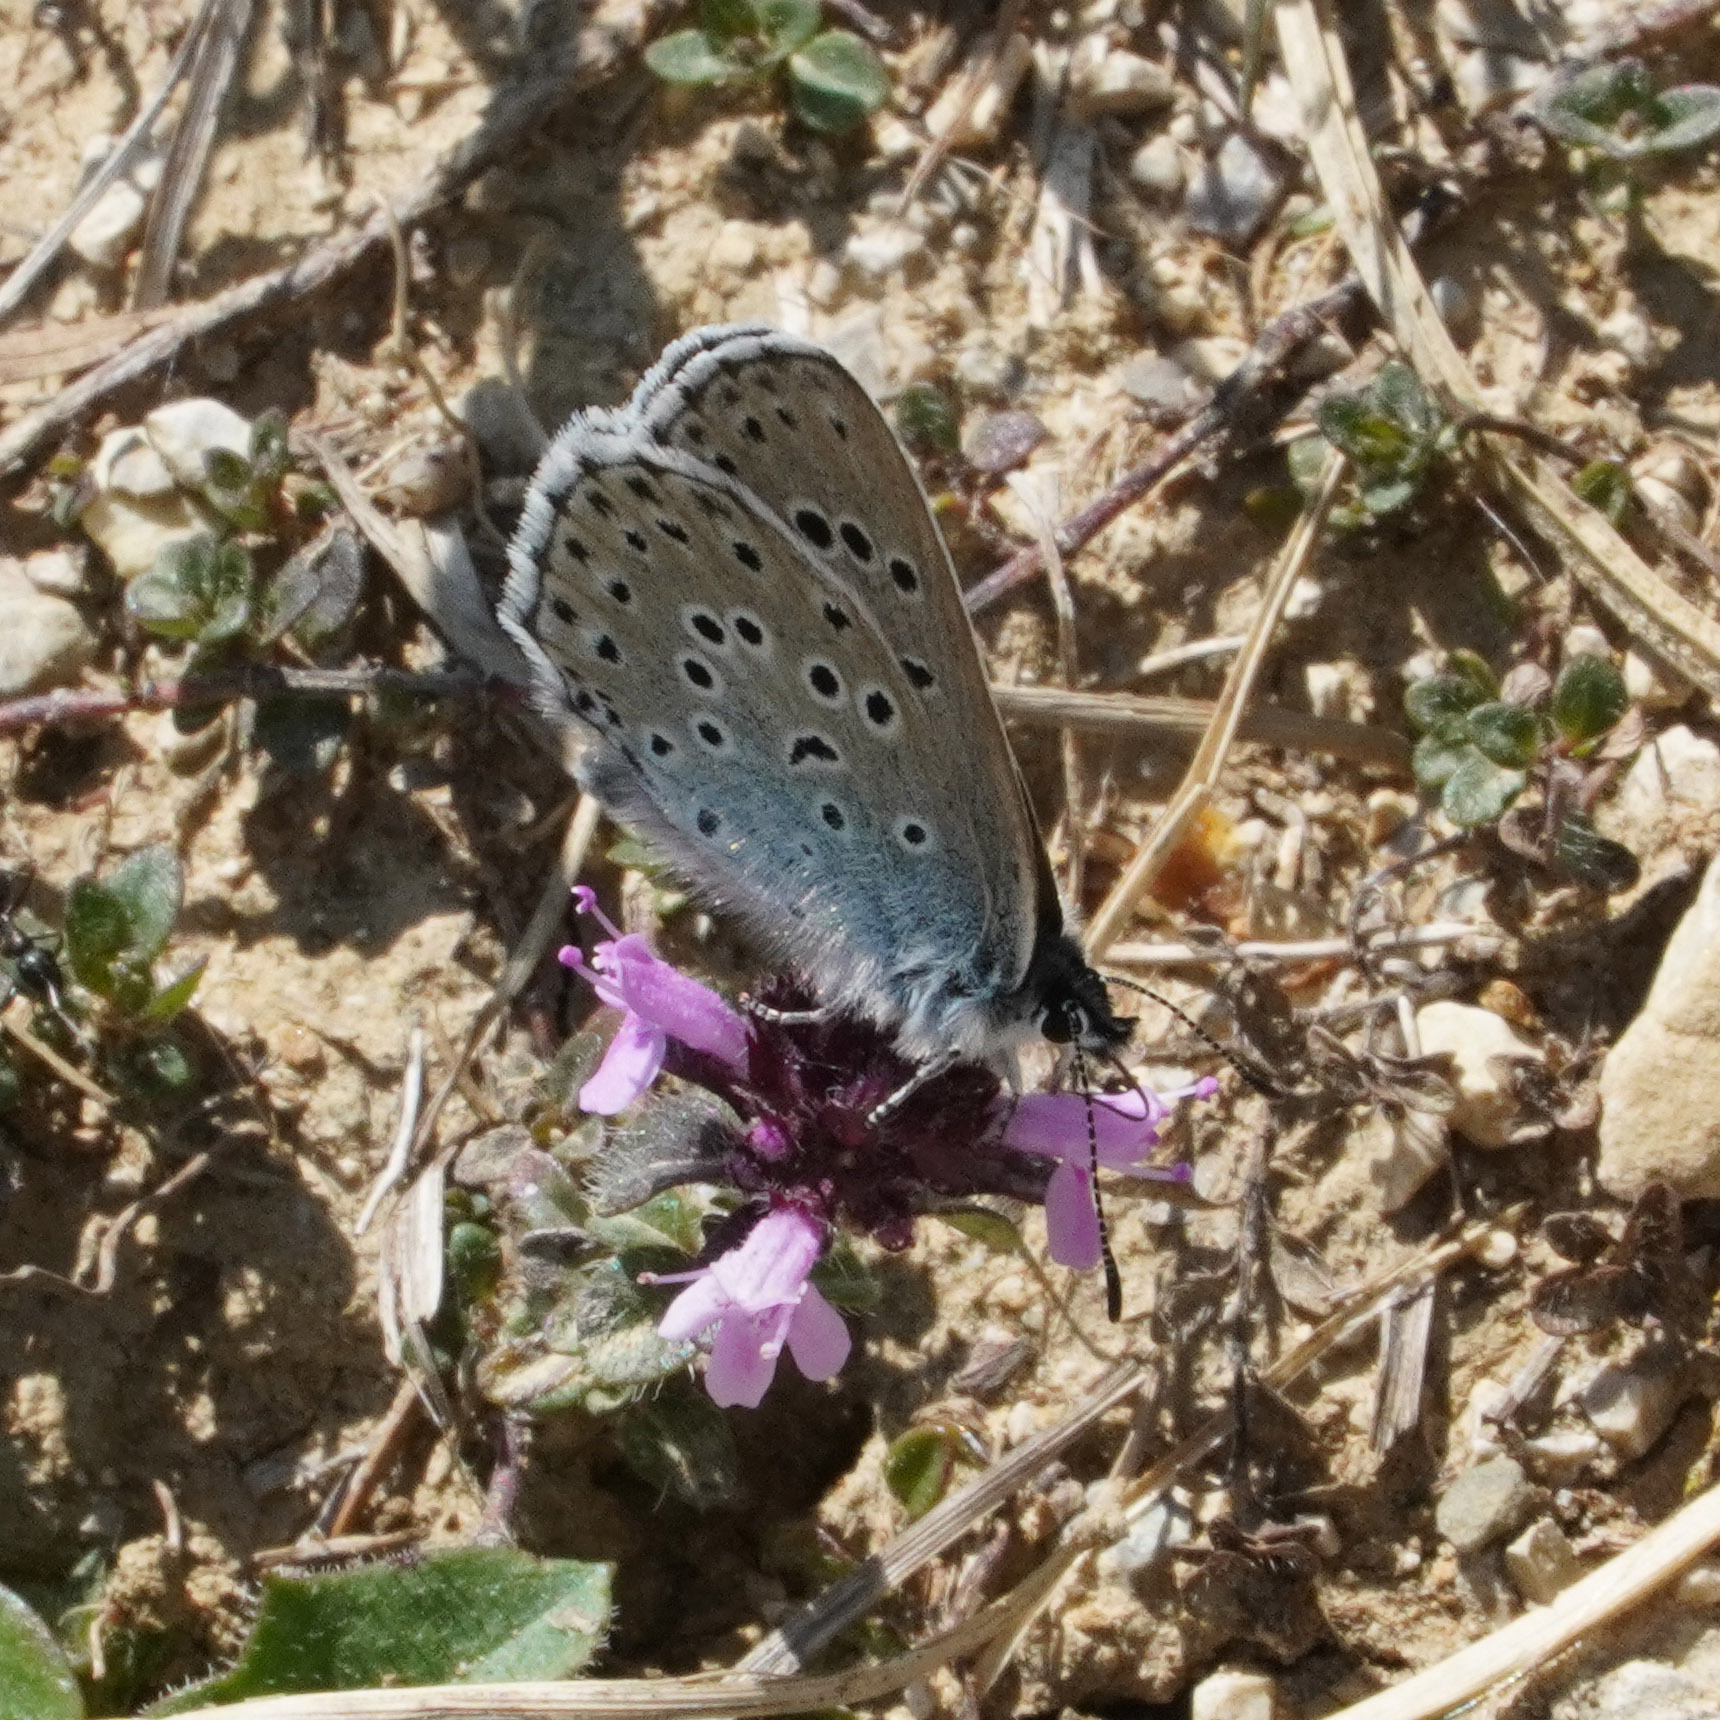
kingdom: Animalia
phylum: Arthropoda
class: Insecta
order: Lepidoptera
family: Lycaenidae
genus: Maculinea
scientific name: Maculinea arion
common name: Large blue
